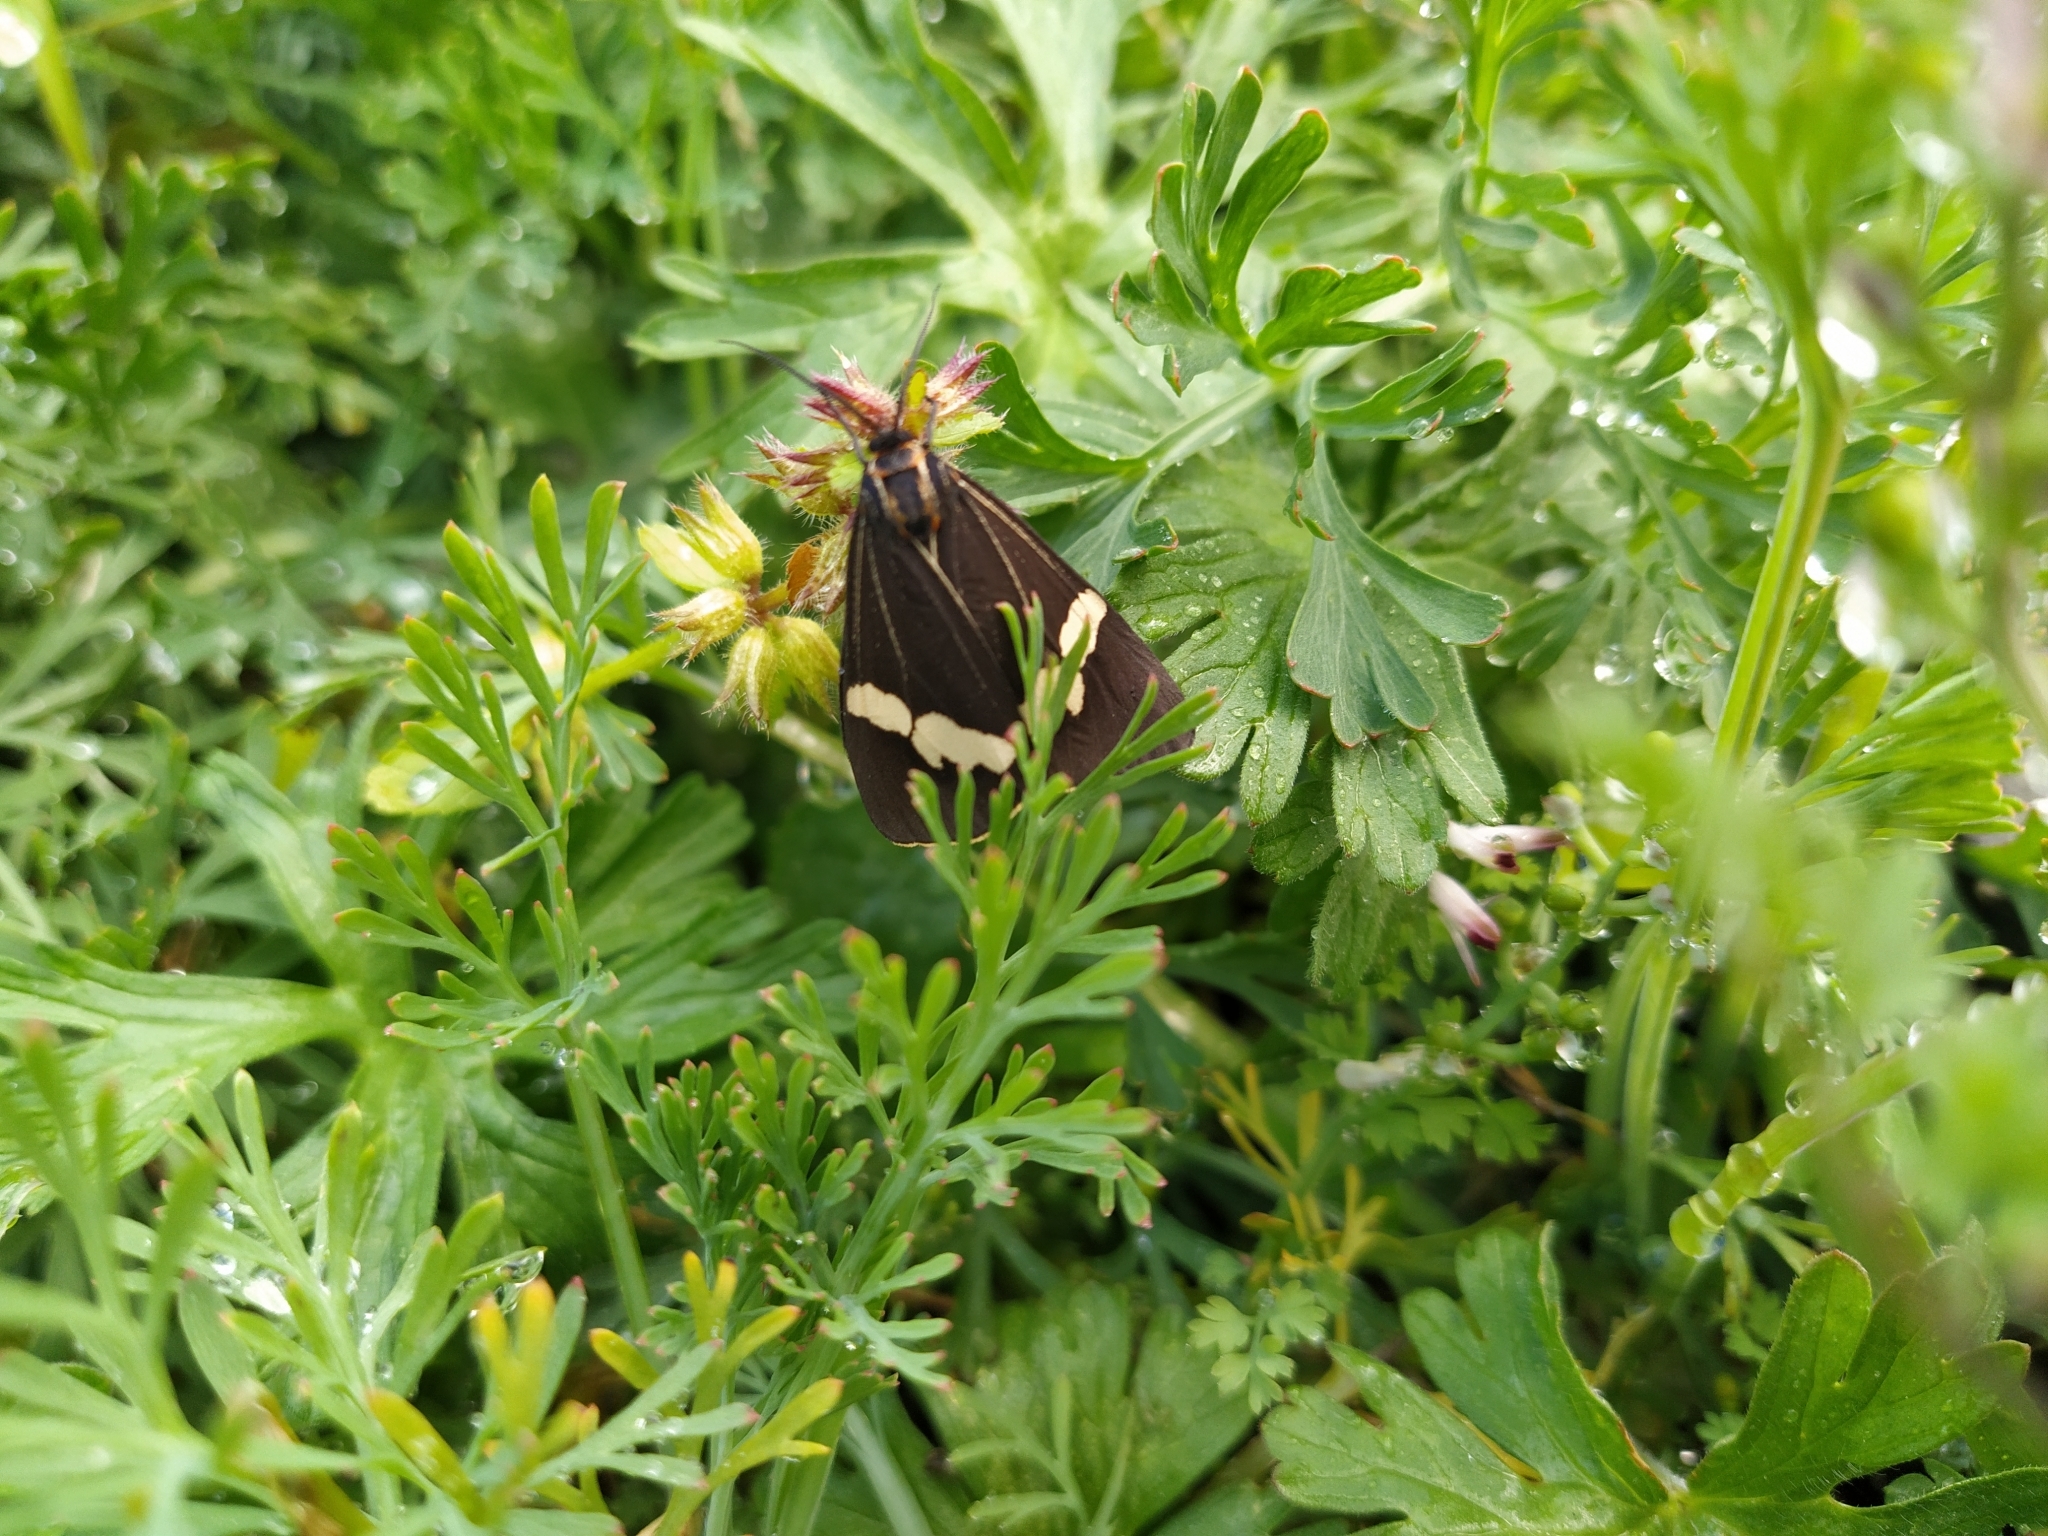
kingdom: Animalia
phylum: Arthropoda
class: Insecta
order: Lepidoptera
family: Erebidae
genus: Nyctemera
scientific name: Nyctemera amicus
